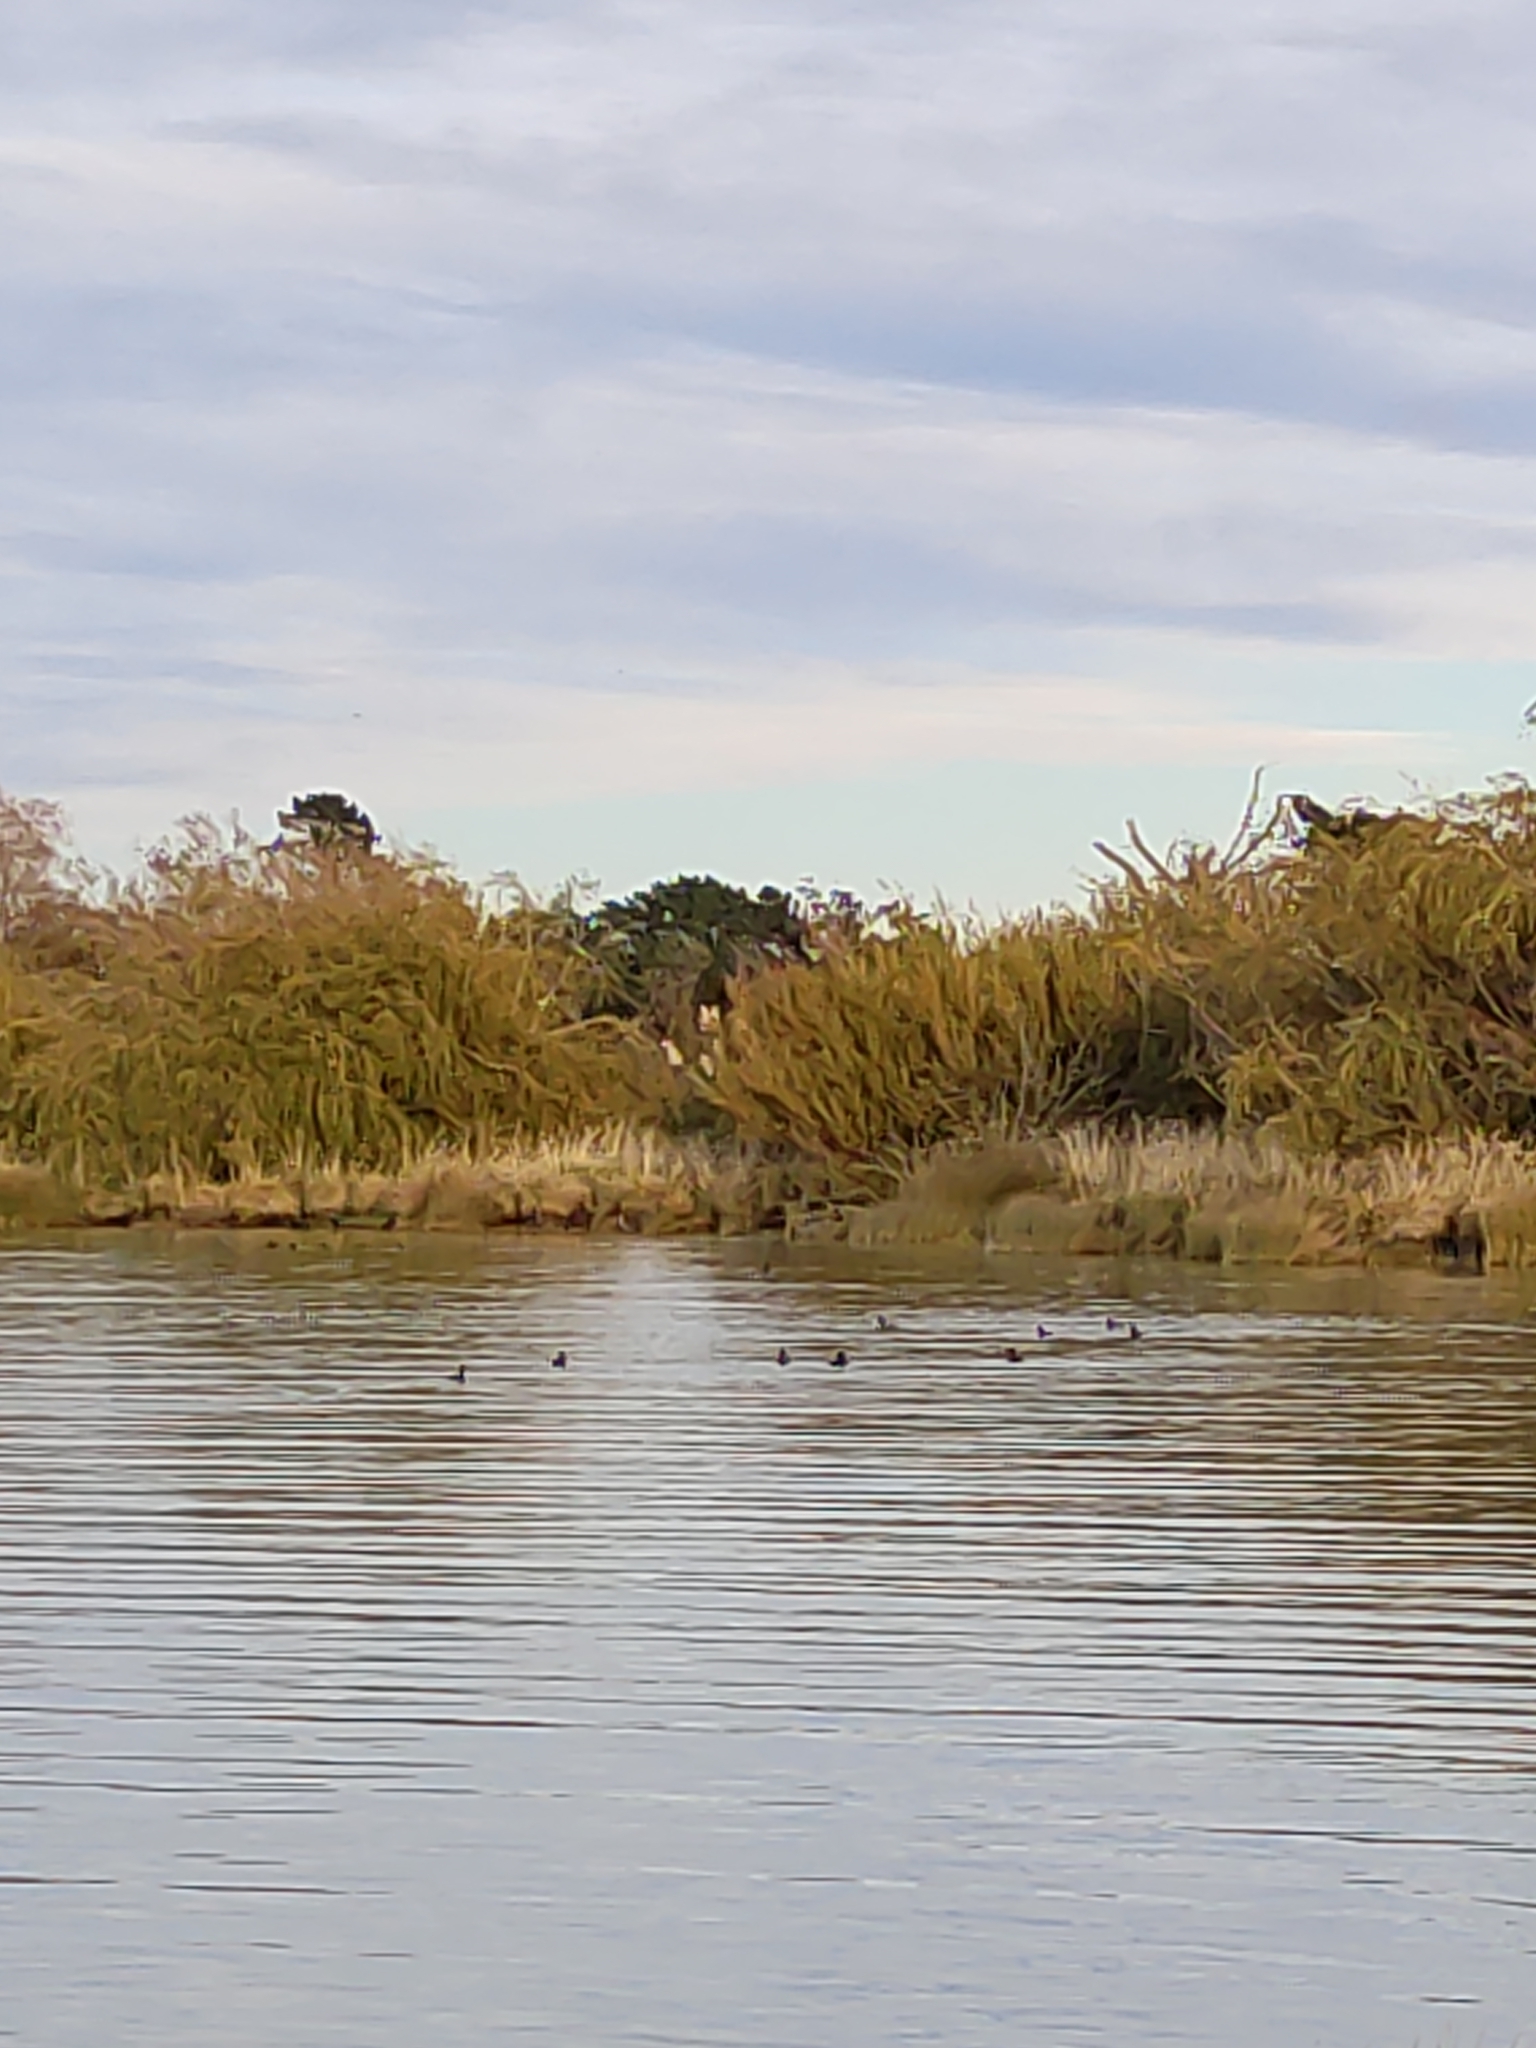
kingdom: Animalia
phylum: Chordata
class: Aves
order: Anseriformes
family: Anatidae
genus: Aythya
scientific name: Aythya novaeseelandiae
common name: New zealand scaup
